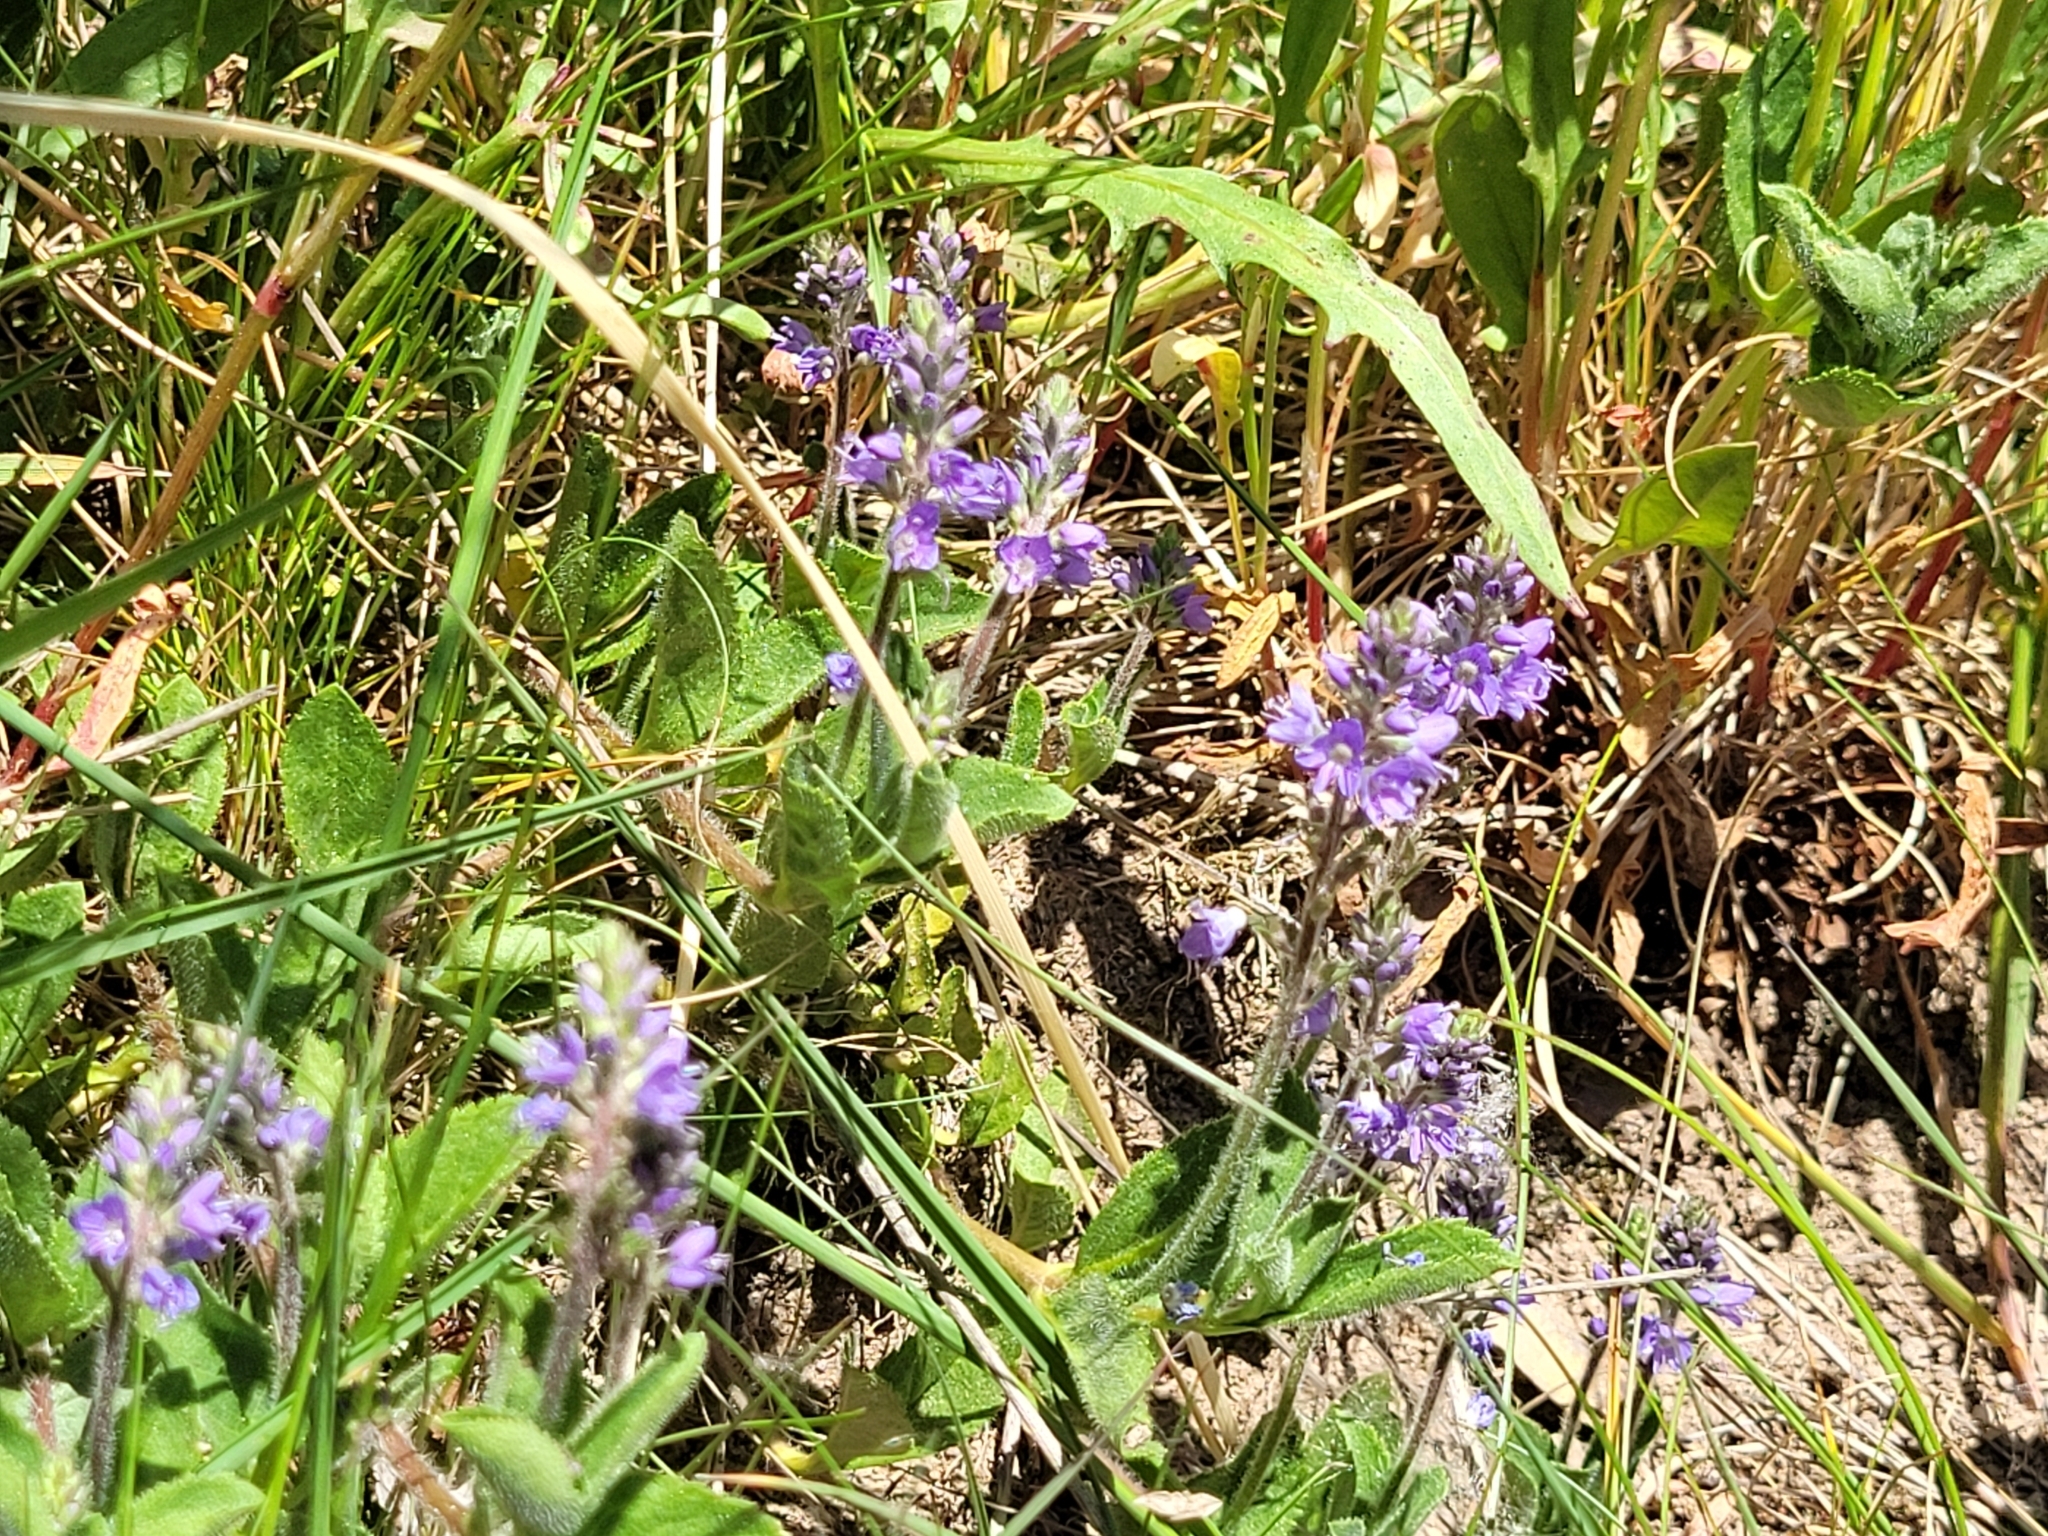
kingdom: Plantae
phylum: Tracheophyta
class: Magnoliopsida
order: Lamiales
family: Plantaginaceae
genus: Veronica
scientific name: Veronica officinalis
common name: Common speedwell
